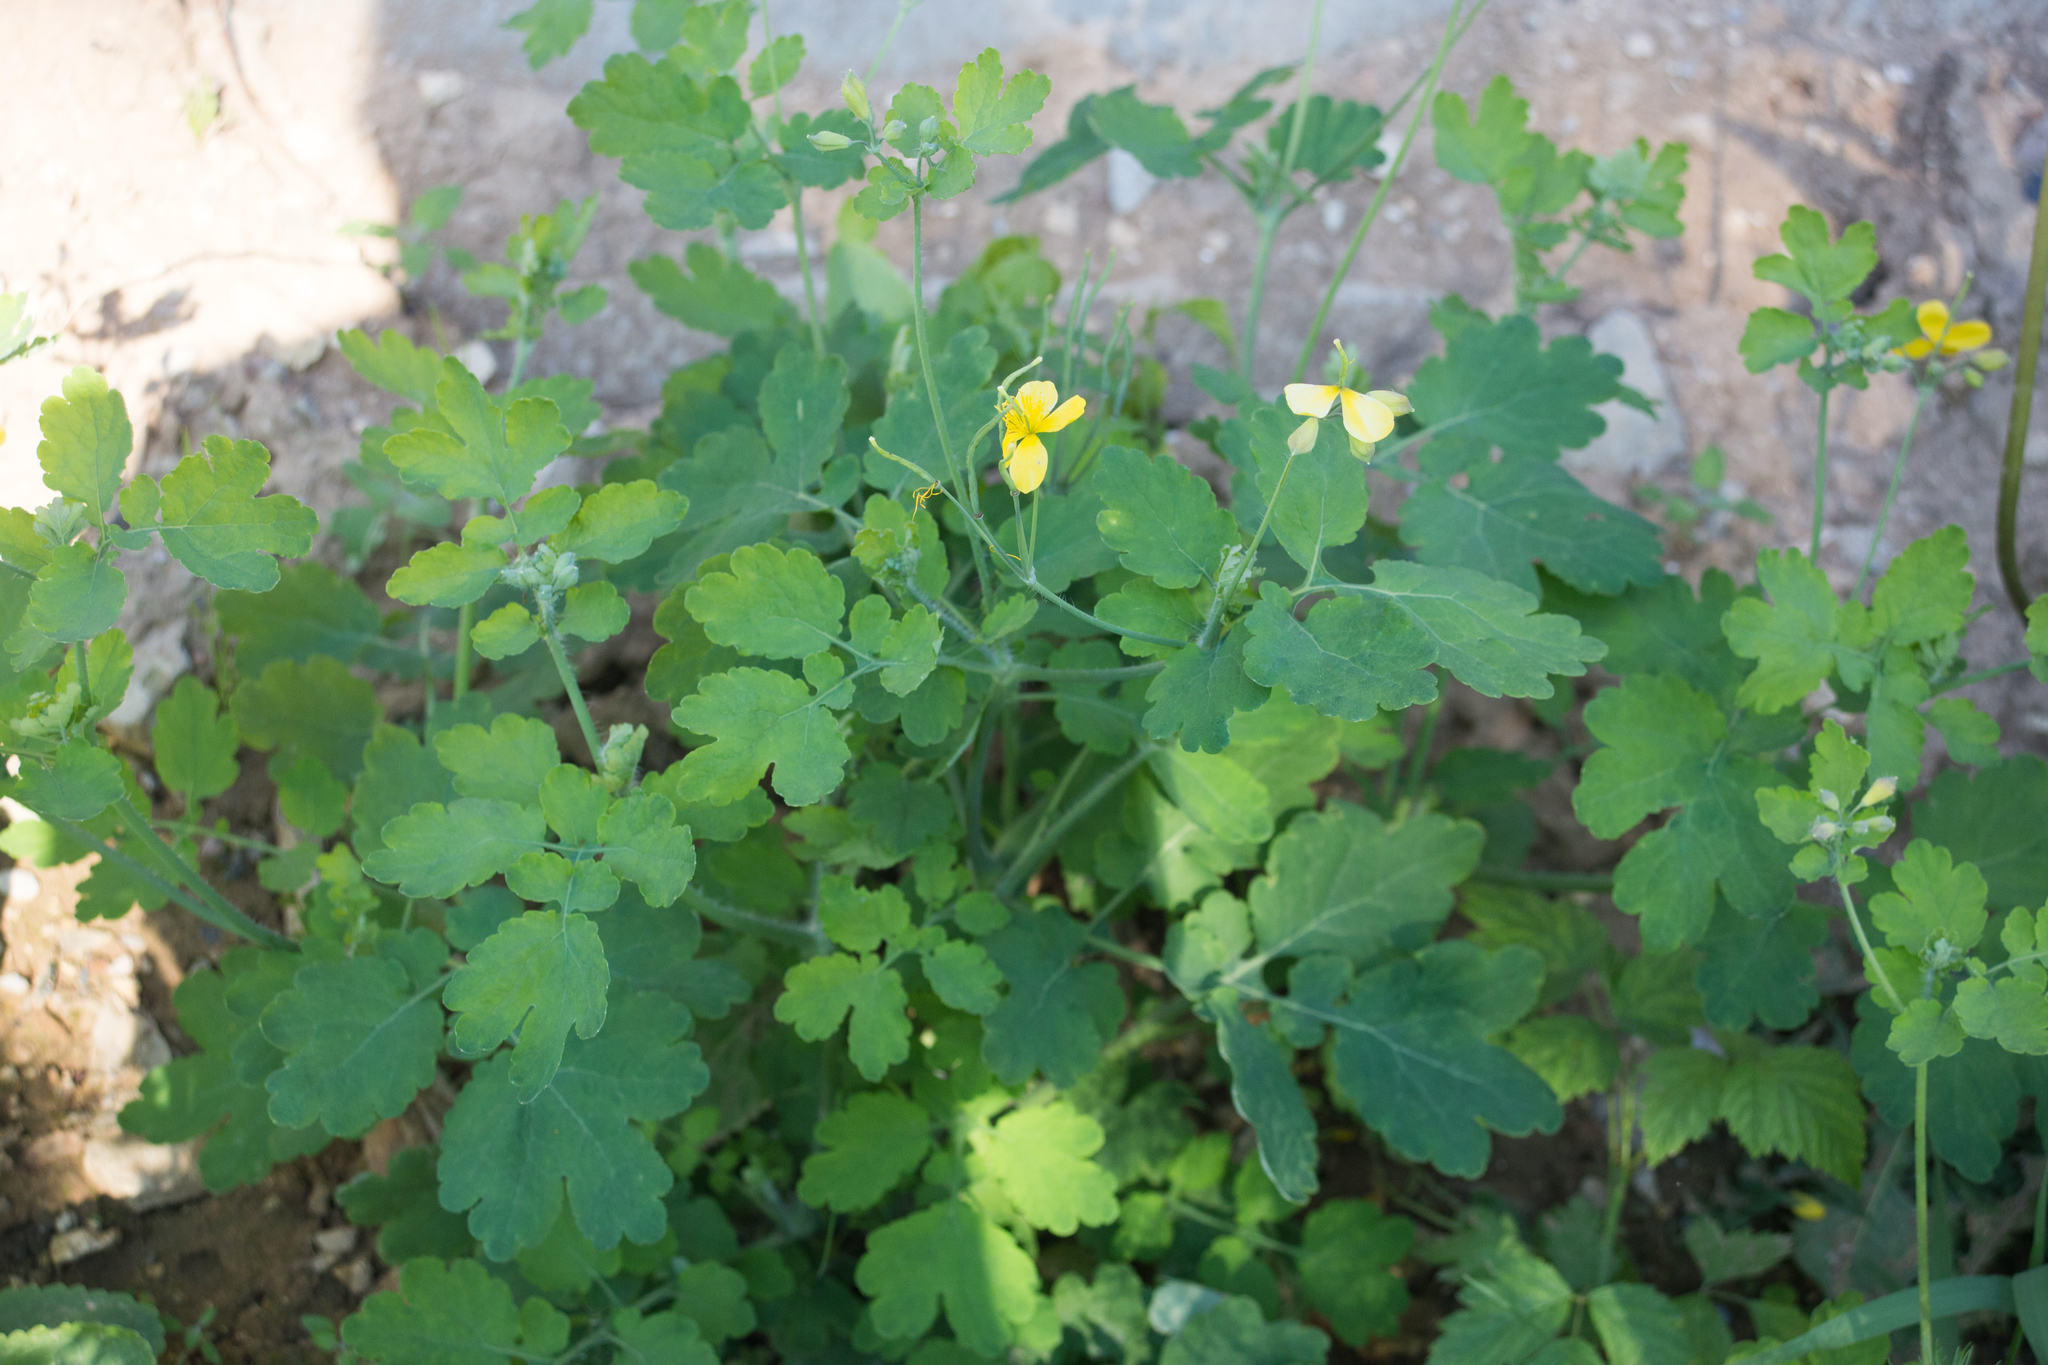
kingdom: Plantae
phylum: Tracheophyta
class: Magnoliopsida
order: Ranunculales
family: Papaveraceae
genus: Chelidonium
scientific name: Chelidonium majus
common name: Greater celandine
